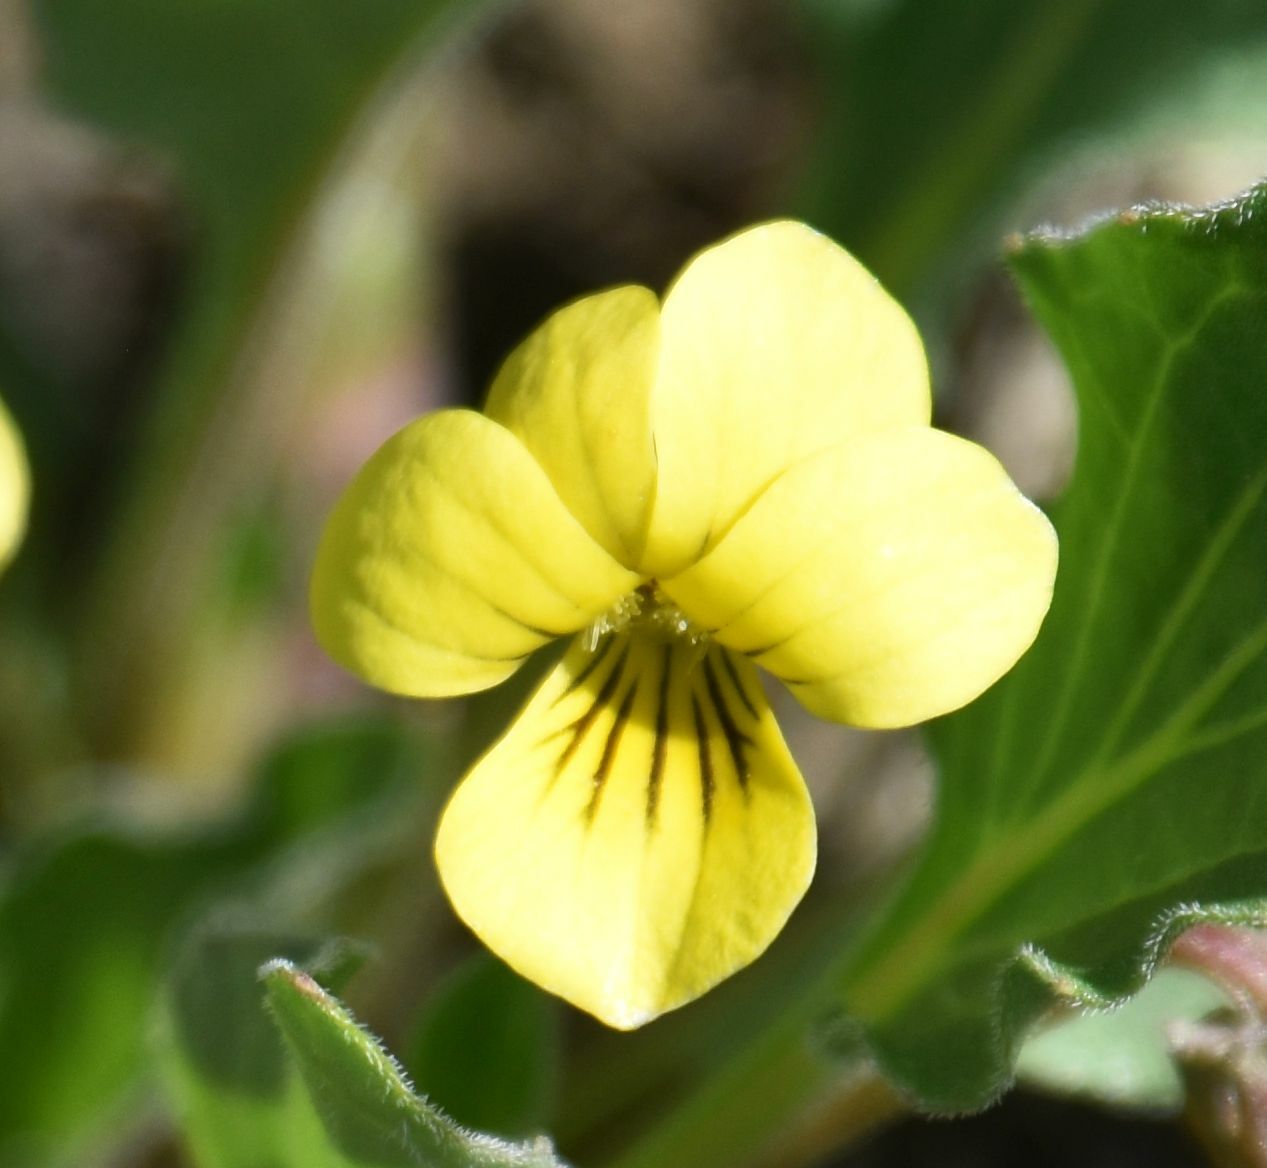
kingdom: Plantae
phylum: Tracheophyta
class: Magnoliopsida
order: Malpighiales
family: Violaceae
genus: Viola
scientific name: Viola nuttallii
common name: Yellow prairie violet
